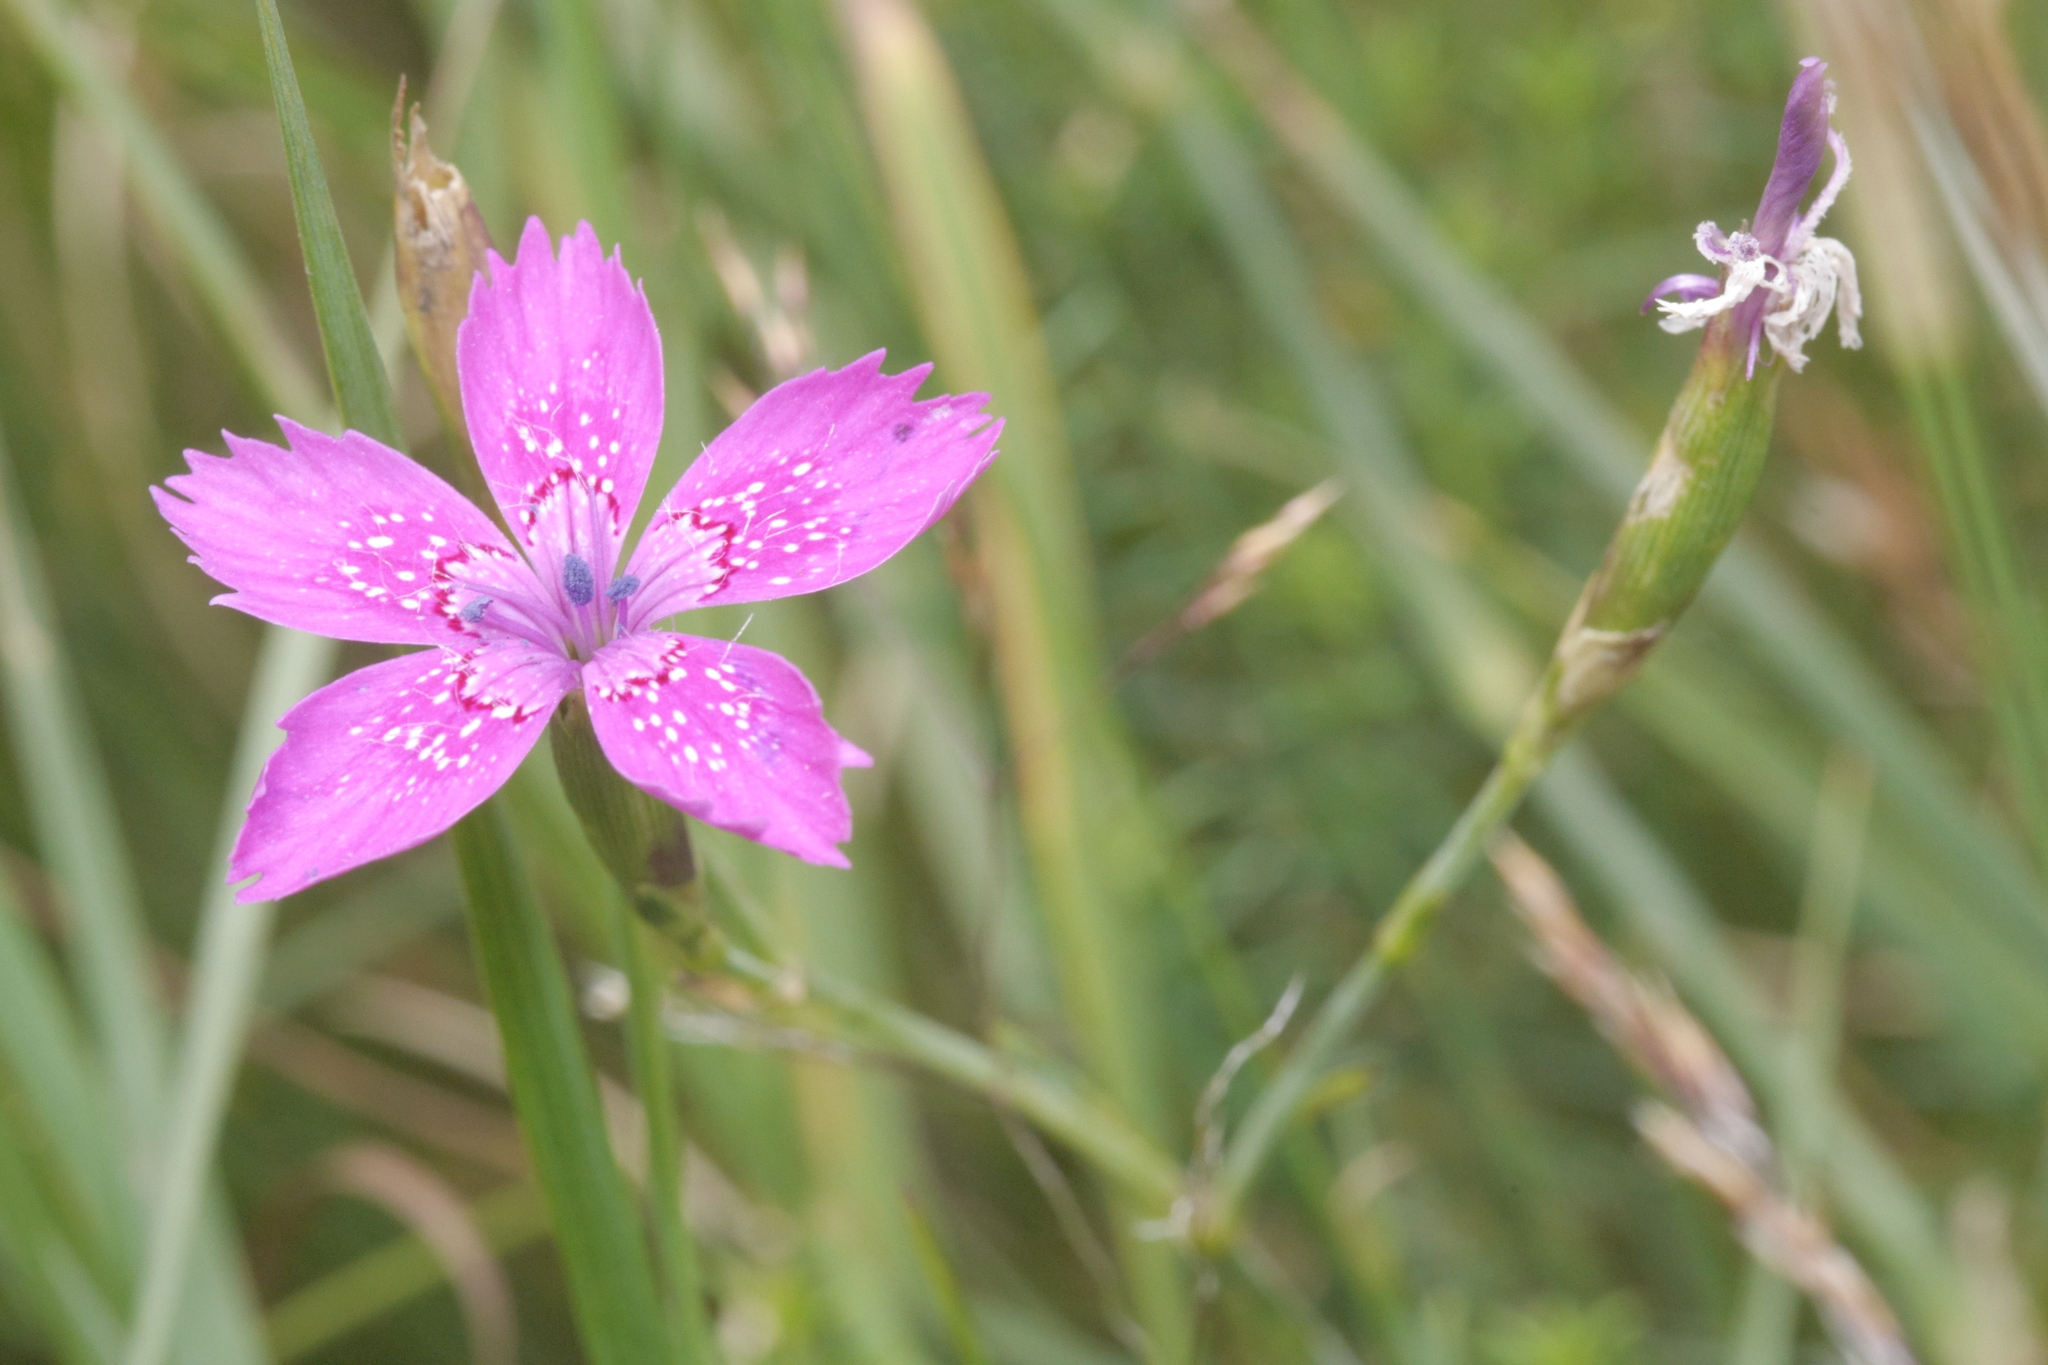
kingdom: Plantae
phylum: Tracheophyta
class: Magnoliopsida
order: Caryophyllales
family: Caryophyllaceae
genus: Dianthus
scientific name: Dianthus deltoides
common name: Maiden pink
